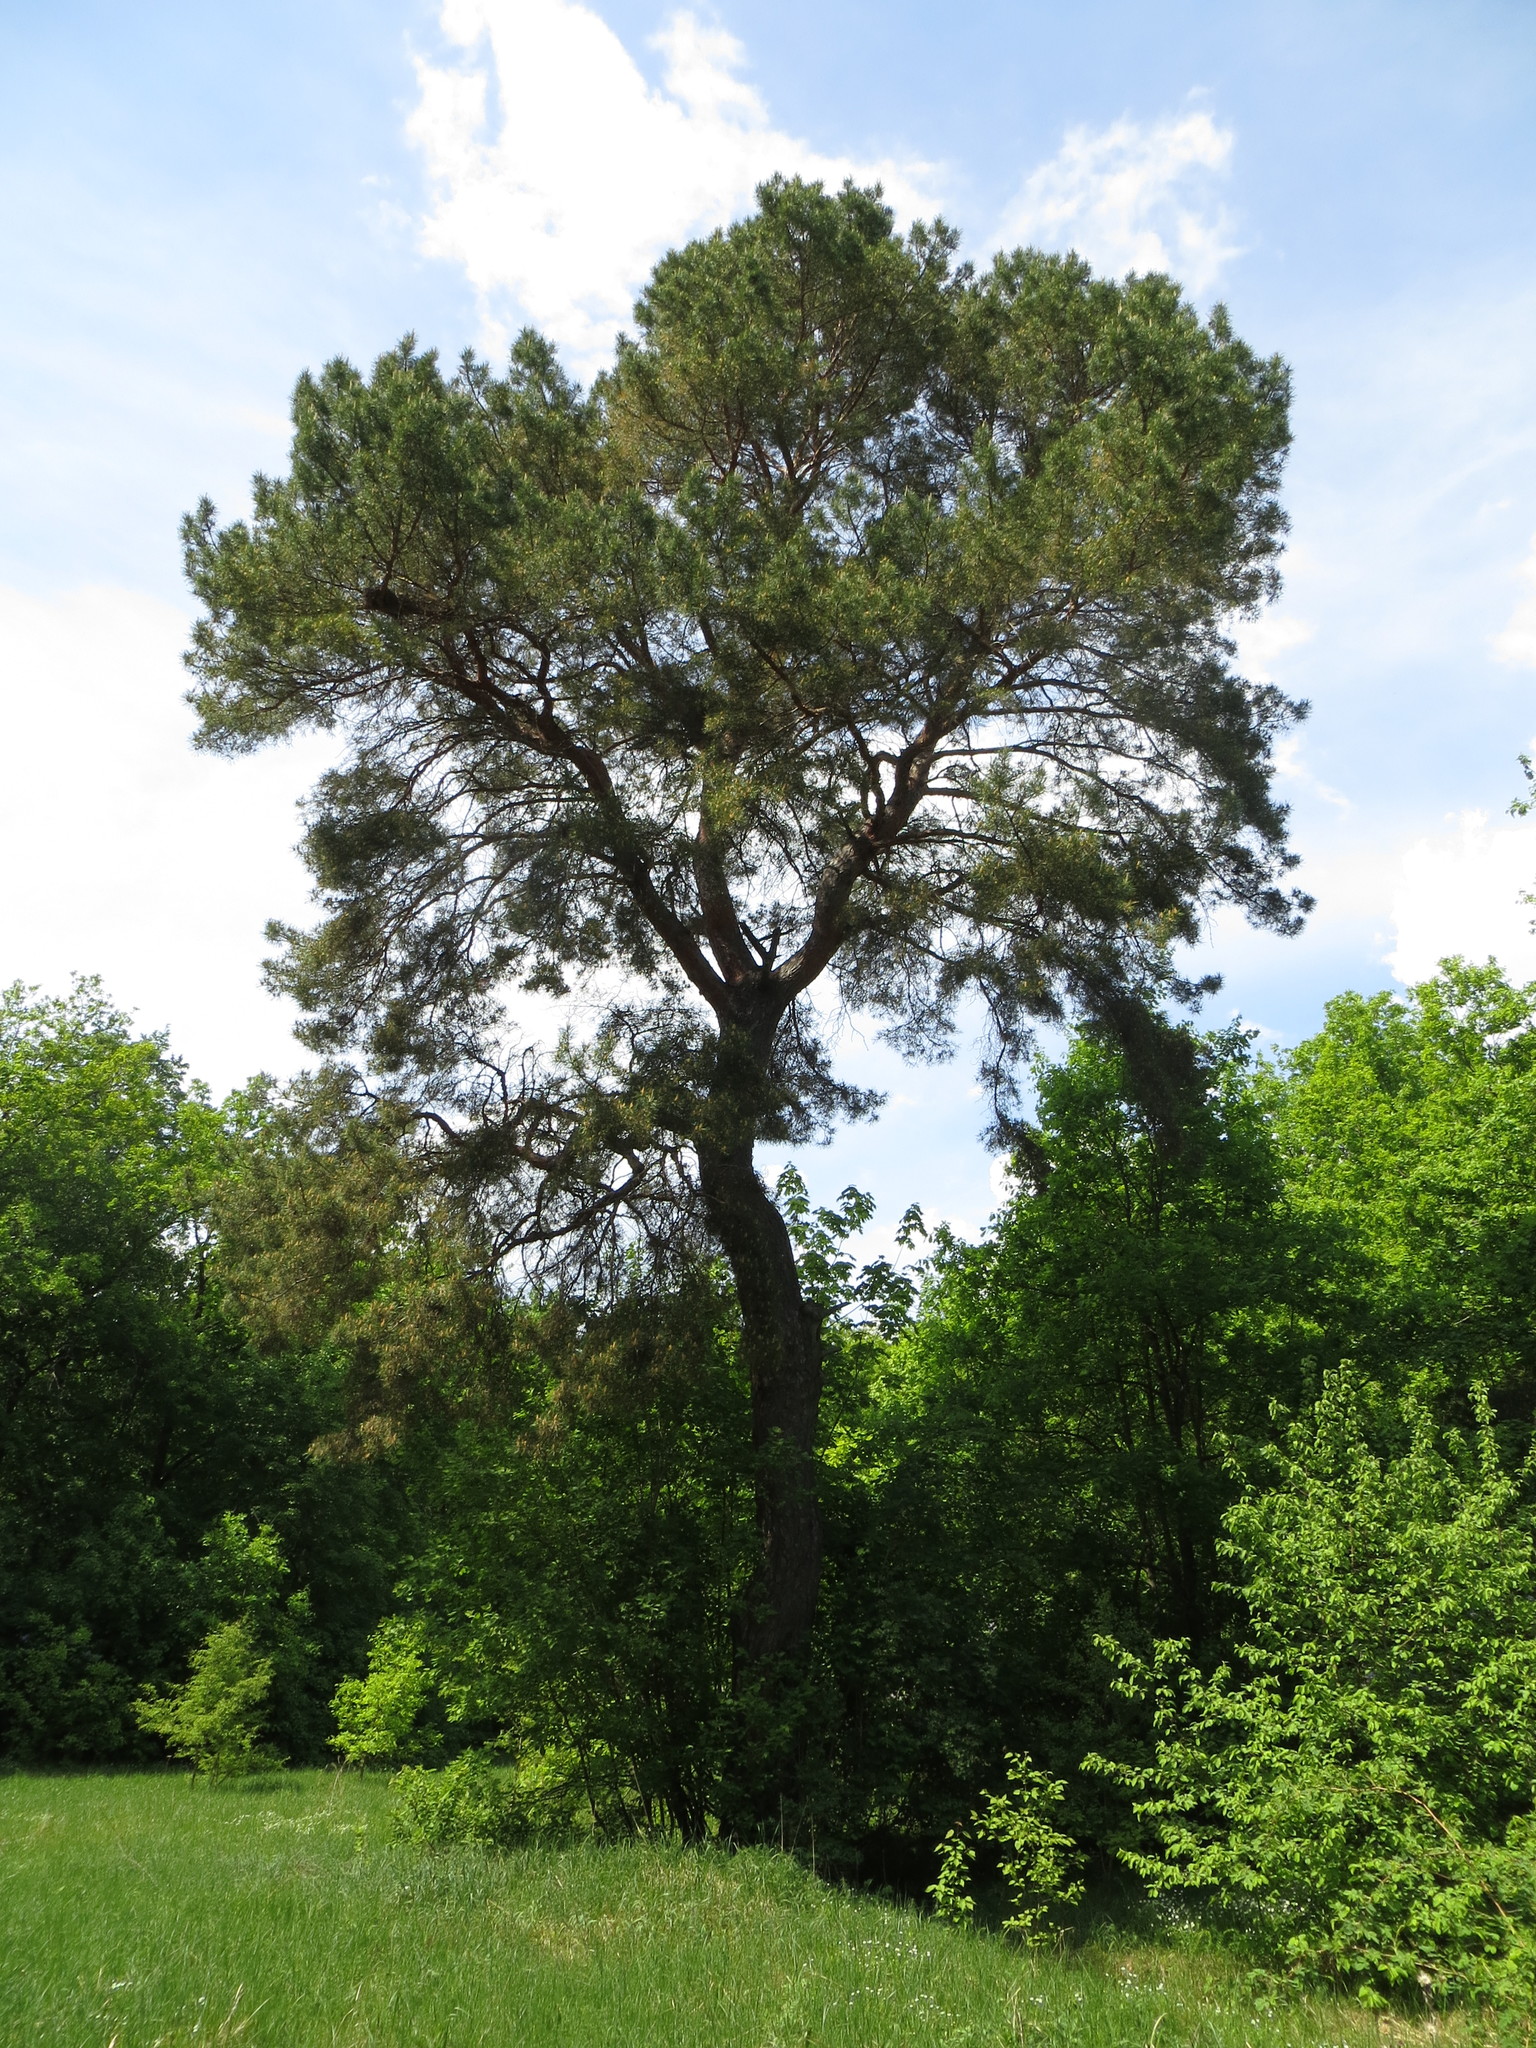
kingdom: Plantae
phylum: Tracheophyta
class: Pinopsida
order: Pinales
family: Pinaceae
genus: Pinus
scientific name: Pinus sylvestris
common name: Scots pine
